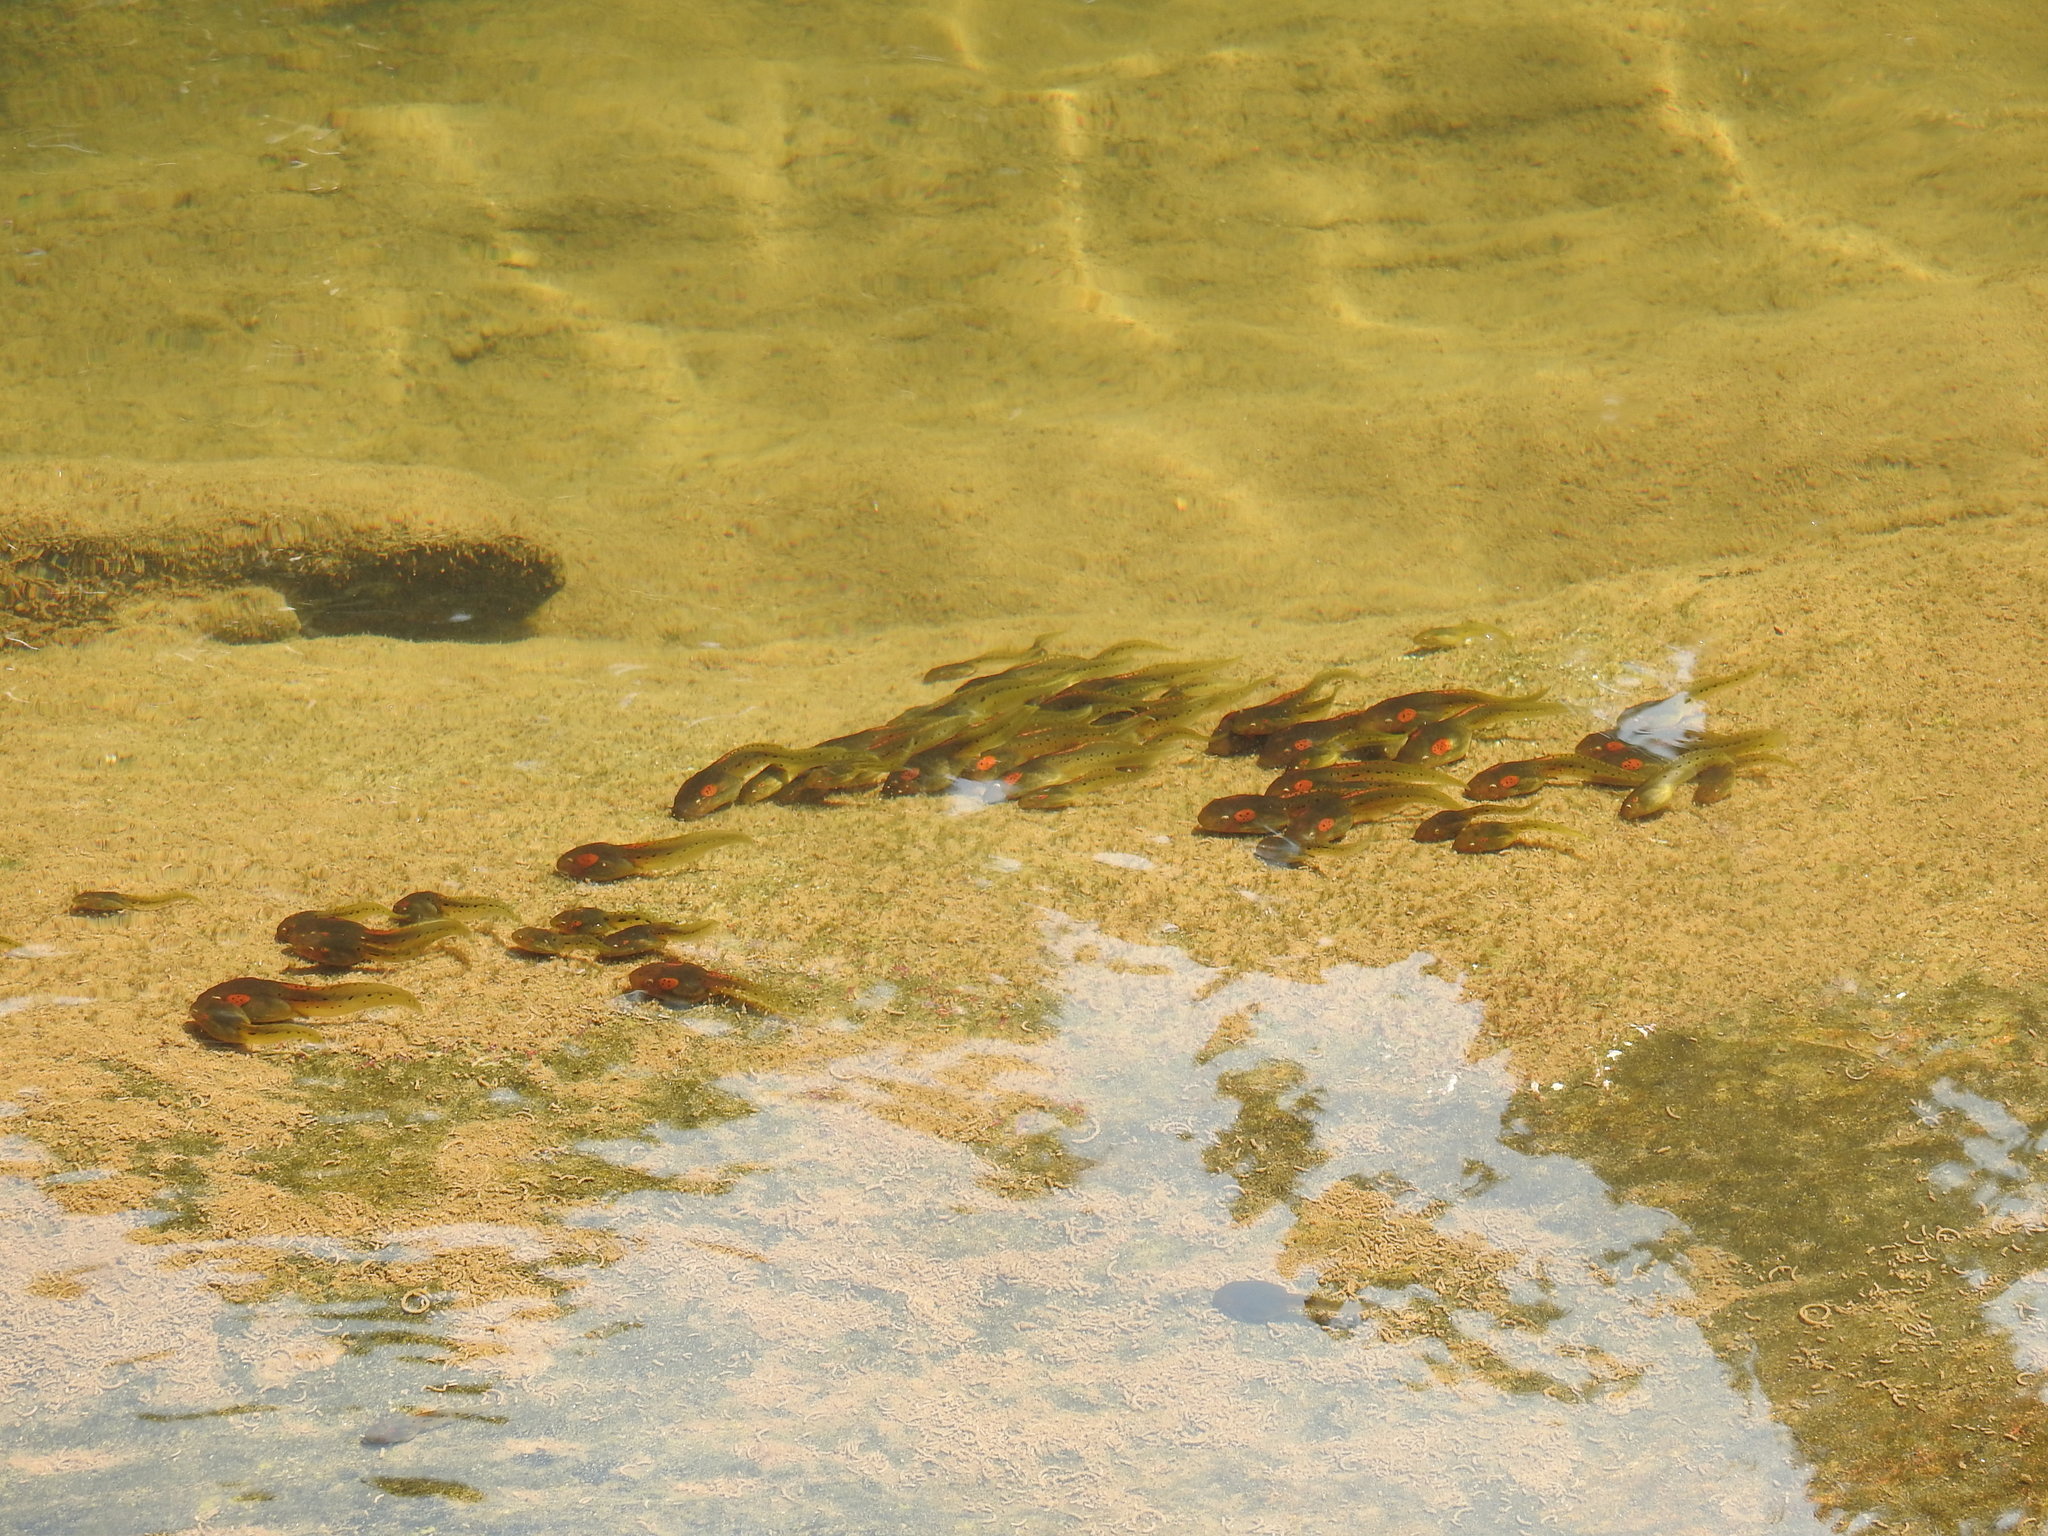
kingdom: Animalia
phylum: Chordata
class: Amphibia
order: Anura
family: Ranidae
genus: Clinotarsus
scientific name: Clinotarsus curtipes
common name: Bicoloured frog
